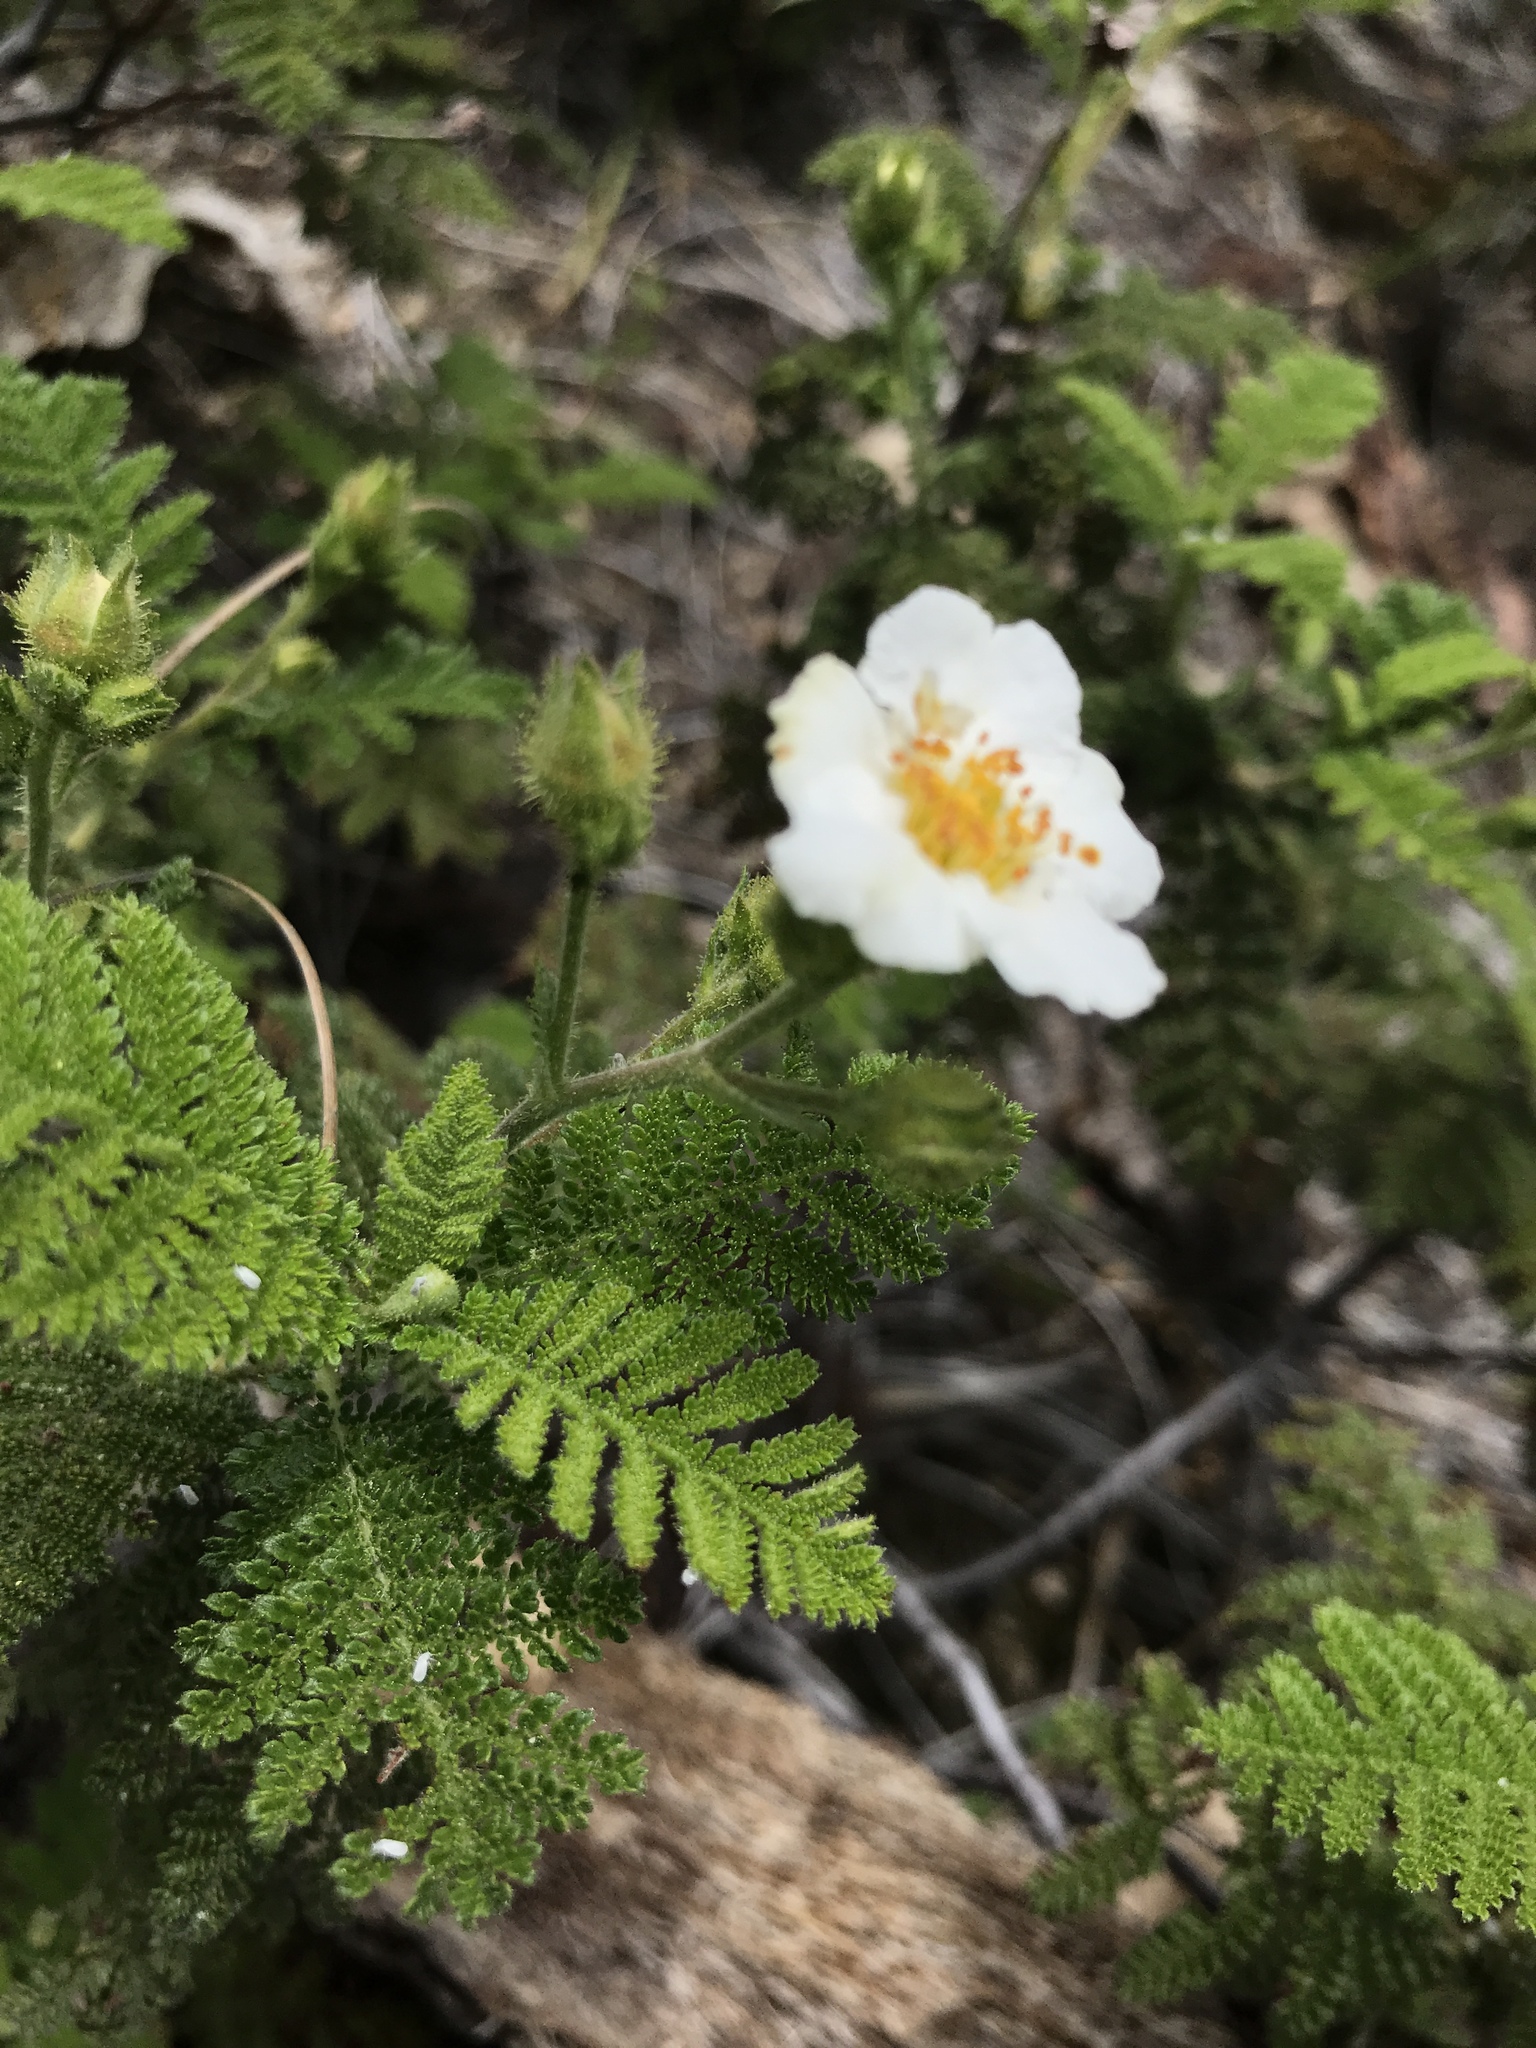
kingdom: Plantae
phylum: Tracheophyta
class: Magnoliopsida
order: Rosales
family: Rosaceae
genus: Chamaebatia
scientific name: Chamaebatia foliolosa
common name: Mountain misery
